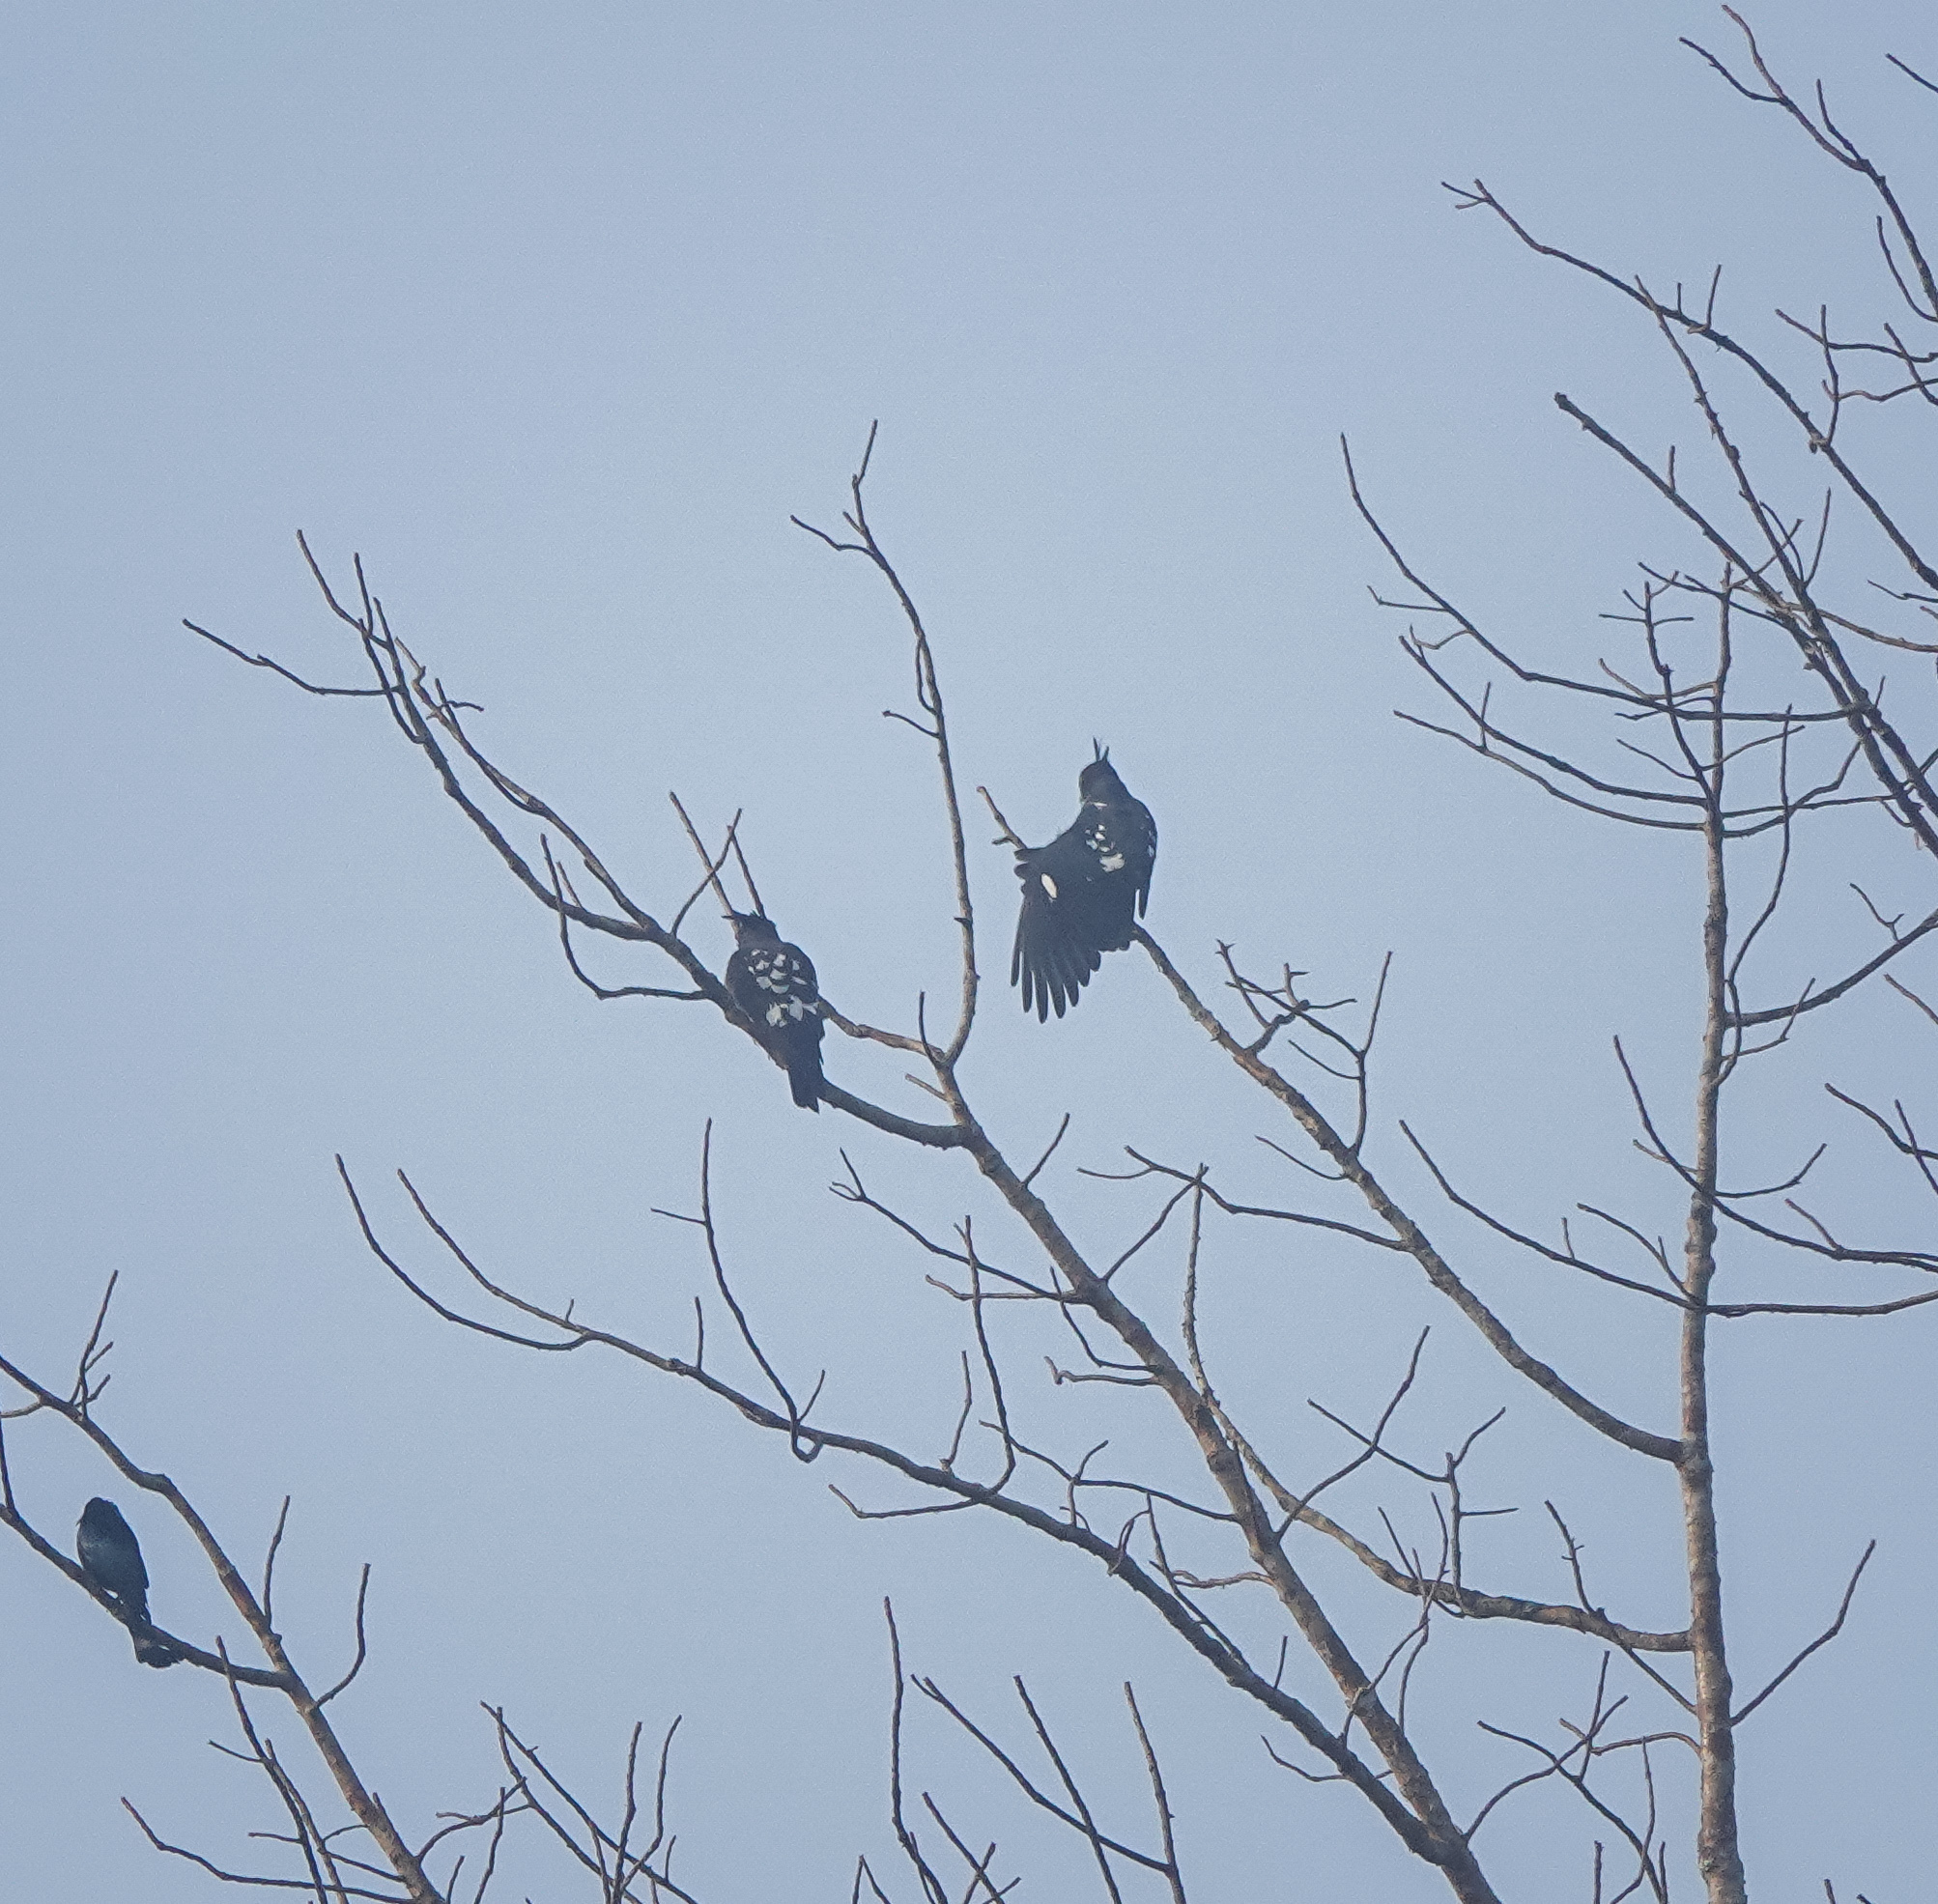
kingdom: Animalia
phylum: Chordata
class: Aves
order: Accipitriformes
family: Accipitridae
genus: Aviceda
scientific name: Aviceda leuphotes
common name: Black baza
